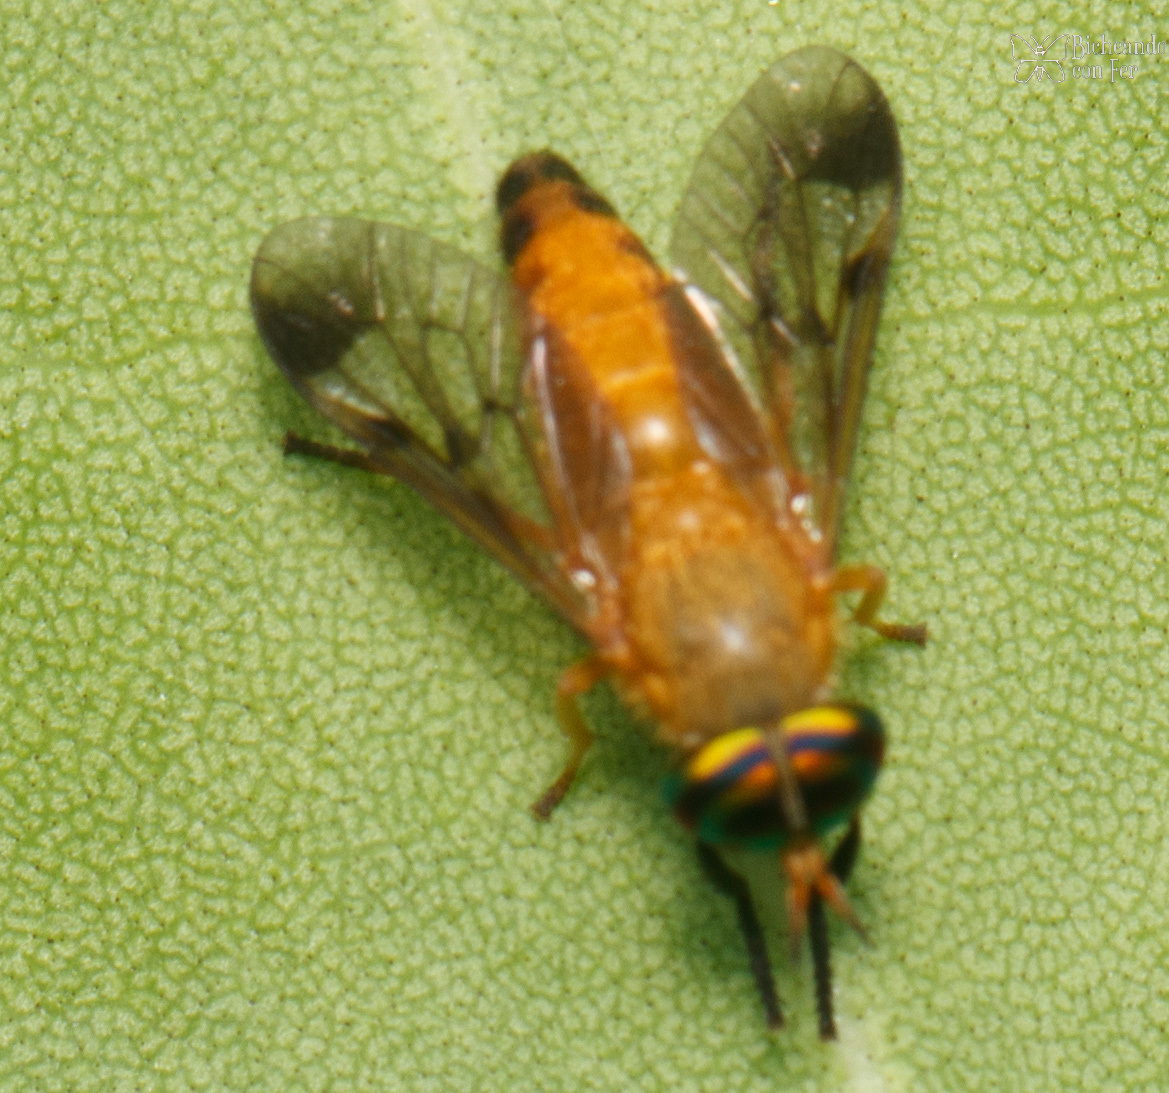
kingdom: Animalia
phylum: Arthropoda
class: Insecta
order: Diptera
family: Tabanidae
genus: Diachlorus
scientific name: Diachlorus ferrugatus
